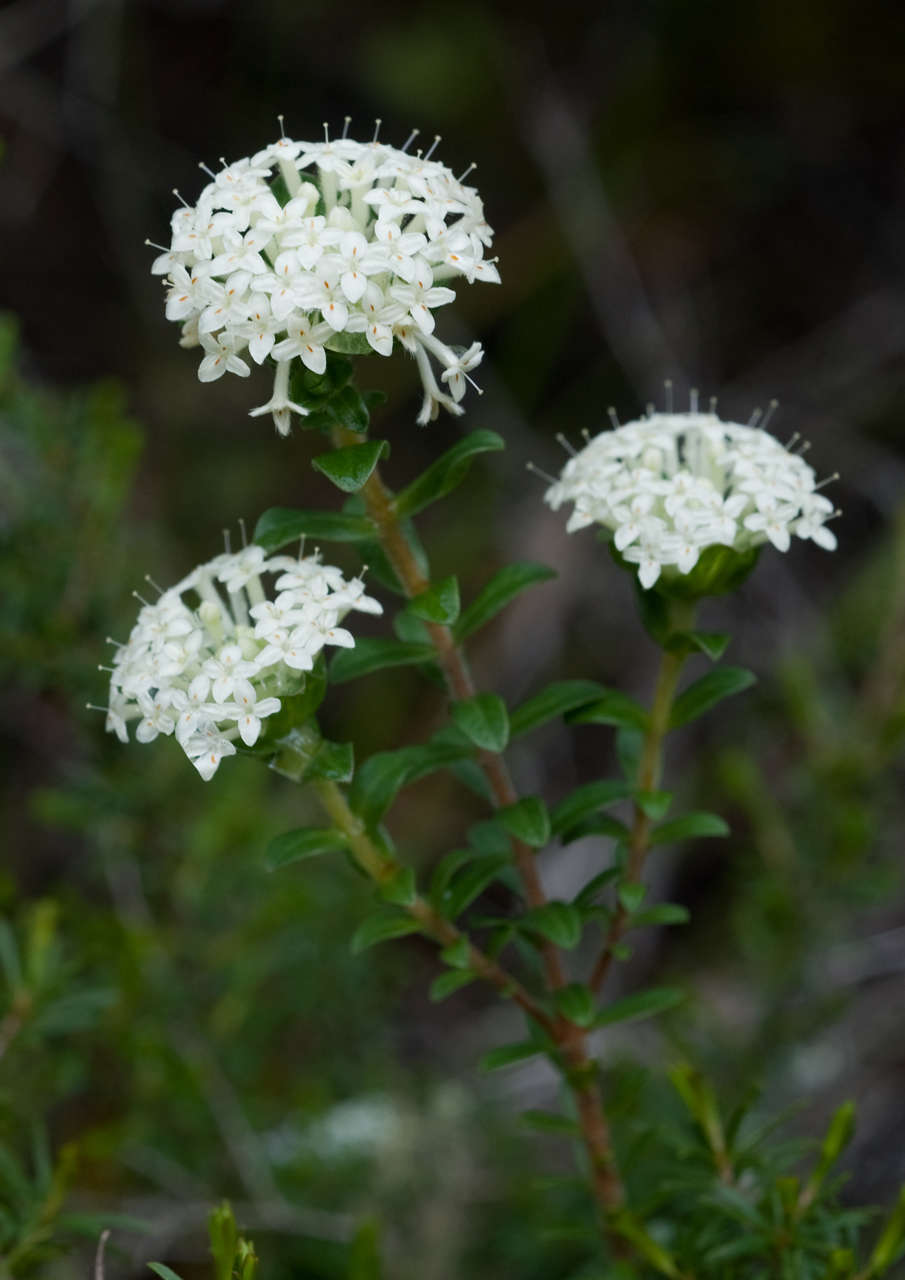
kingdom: Plantae
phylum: Tracheophyta
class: Magnoliopsida
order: Malvales
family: Thymelaeaceae
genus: Pimelea
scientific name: Pimelea humilis
